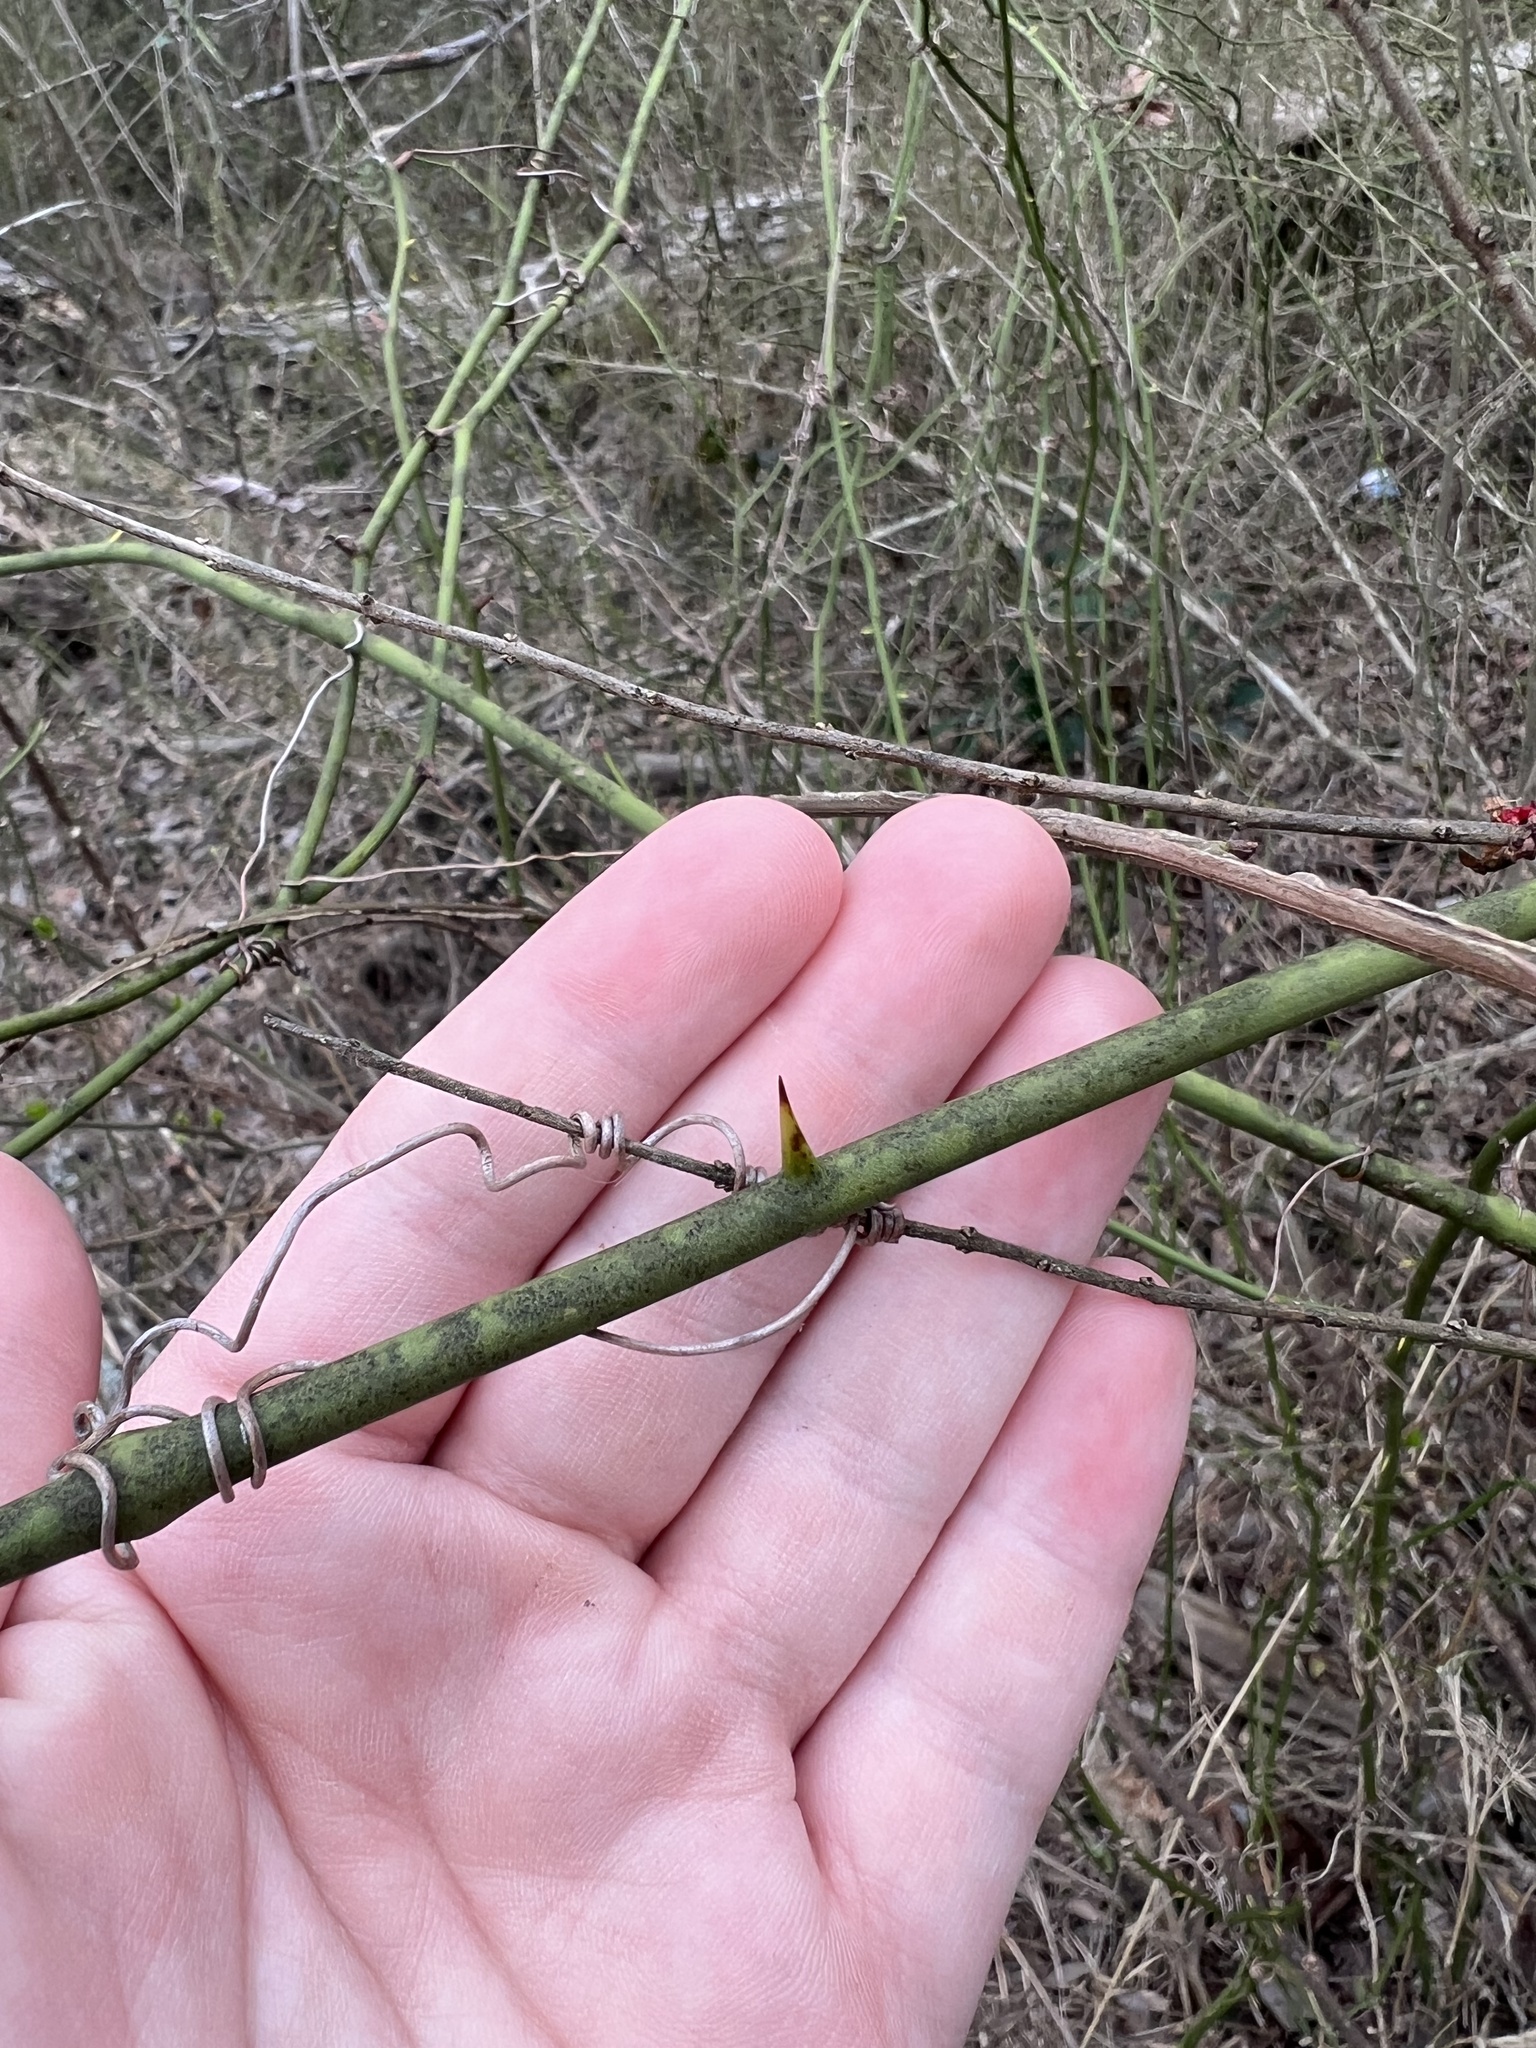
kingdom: Plantae
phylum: Tracheophyta
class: Liliopsida
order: Liliales
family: Smilacaceae
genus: Smilax
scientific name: Smilax rotundifolia
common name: Bullbriar
